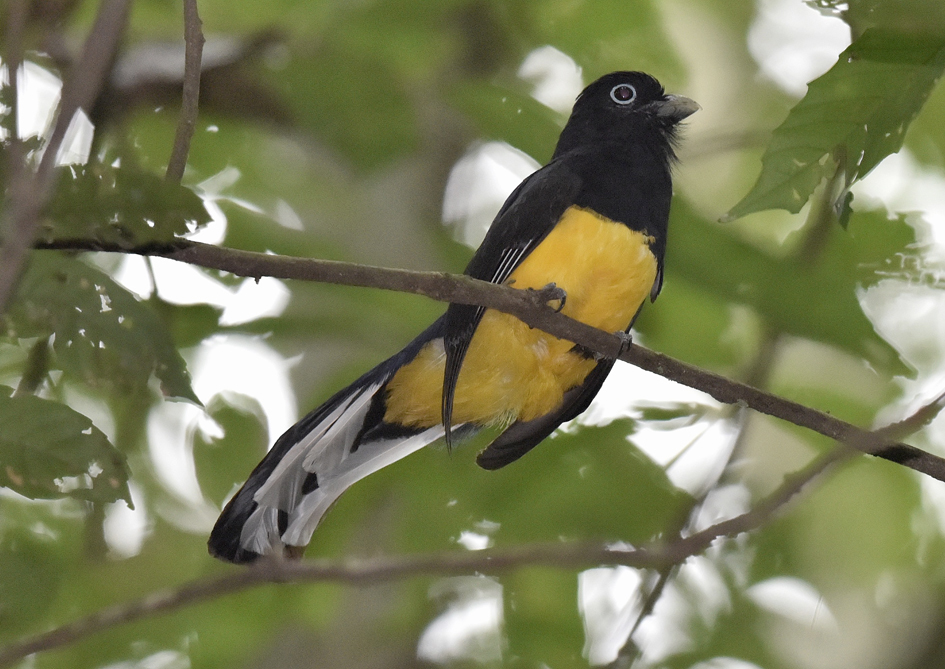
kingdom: Animalia
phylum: Chordata
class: Aves
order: Trogoniformes
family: Trogonidae
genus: Trogon
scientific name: Trogon viridis
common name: Green-backed trogon
